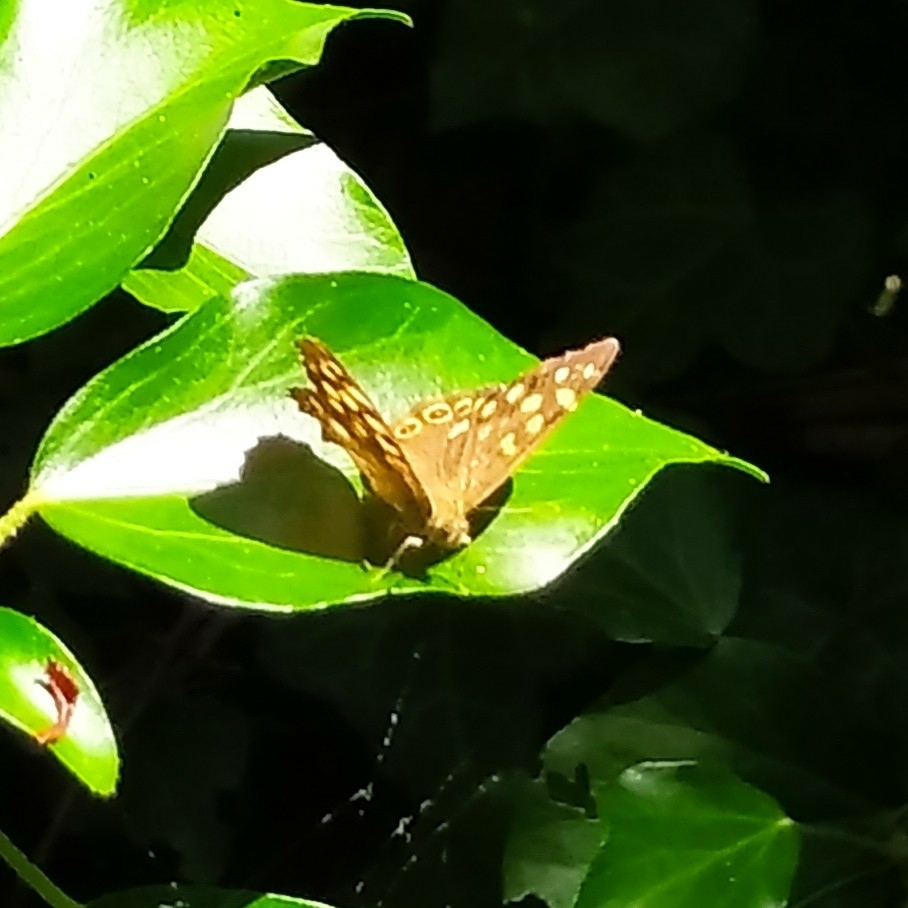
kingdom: Animalia
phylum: Arthropoda
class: Insecta
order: Lepidoptera
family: Nymphalidae
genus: Pararge
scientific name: Pararge aegeria
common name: Speckled wood
